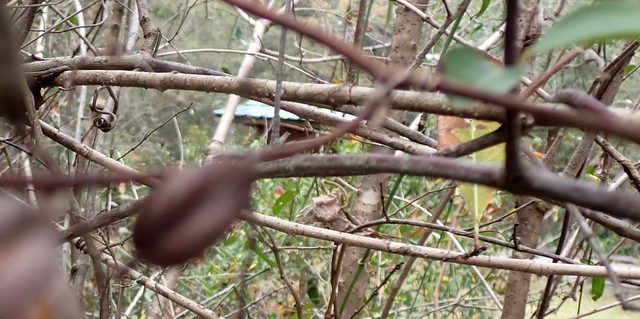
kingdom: Plantae
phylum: Tracheophyta
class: Magnoliopsida
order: Gentianales
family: Gelsemiaceae
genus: Gelsemium
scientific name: Gelsemium sempervirens
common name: Carolina-jasmine
